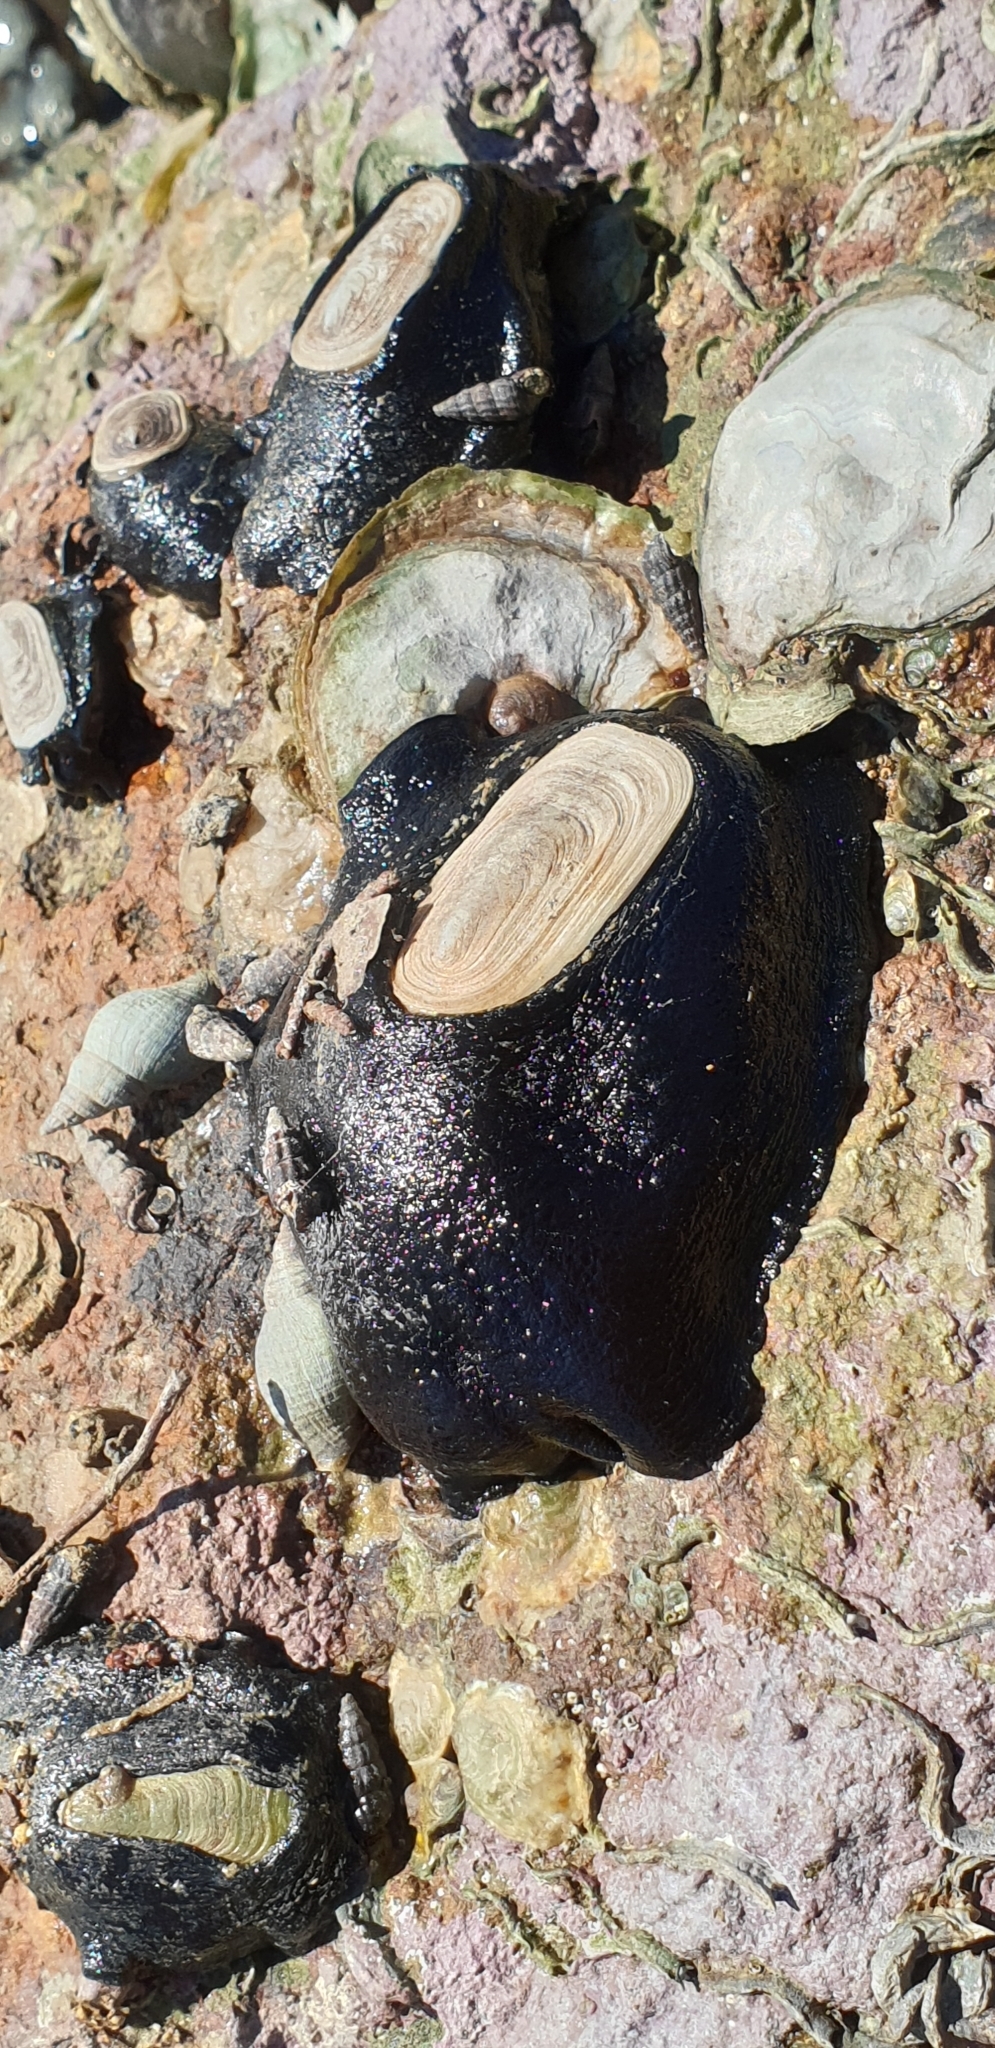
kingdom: Animalia
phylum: Mollusca
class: Gastropoda
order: Lepetellida
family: Fissurellidae
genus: Scutus
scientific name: Scutus breviculus
